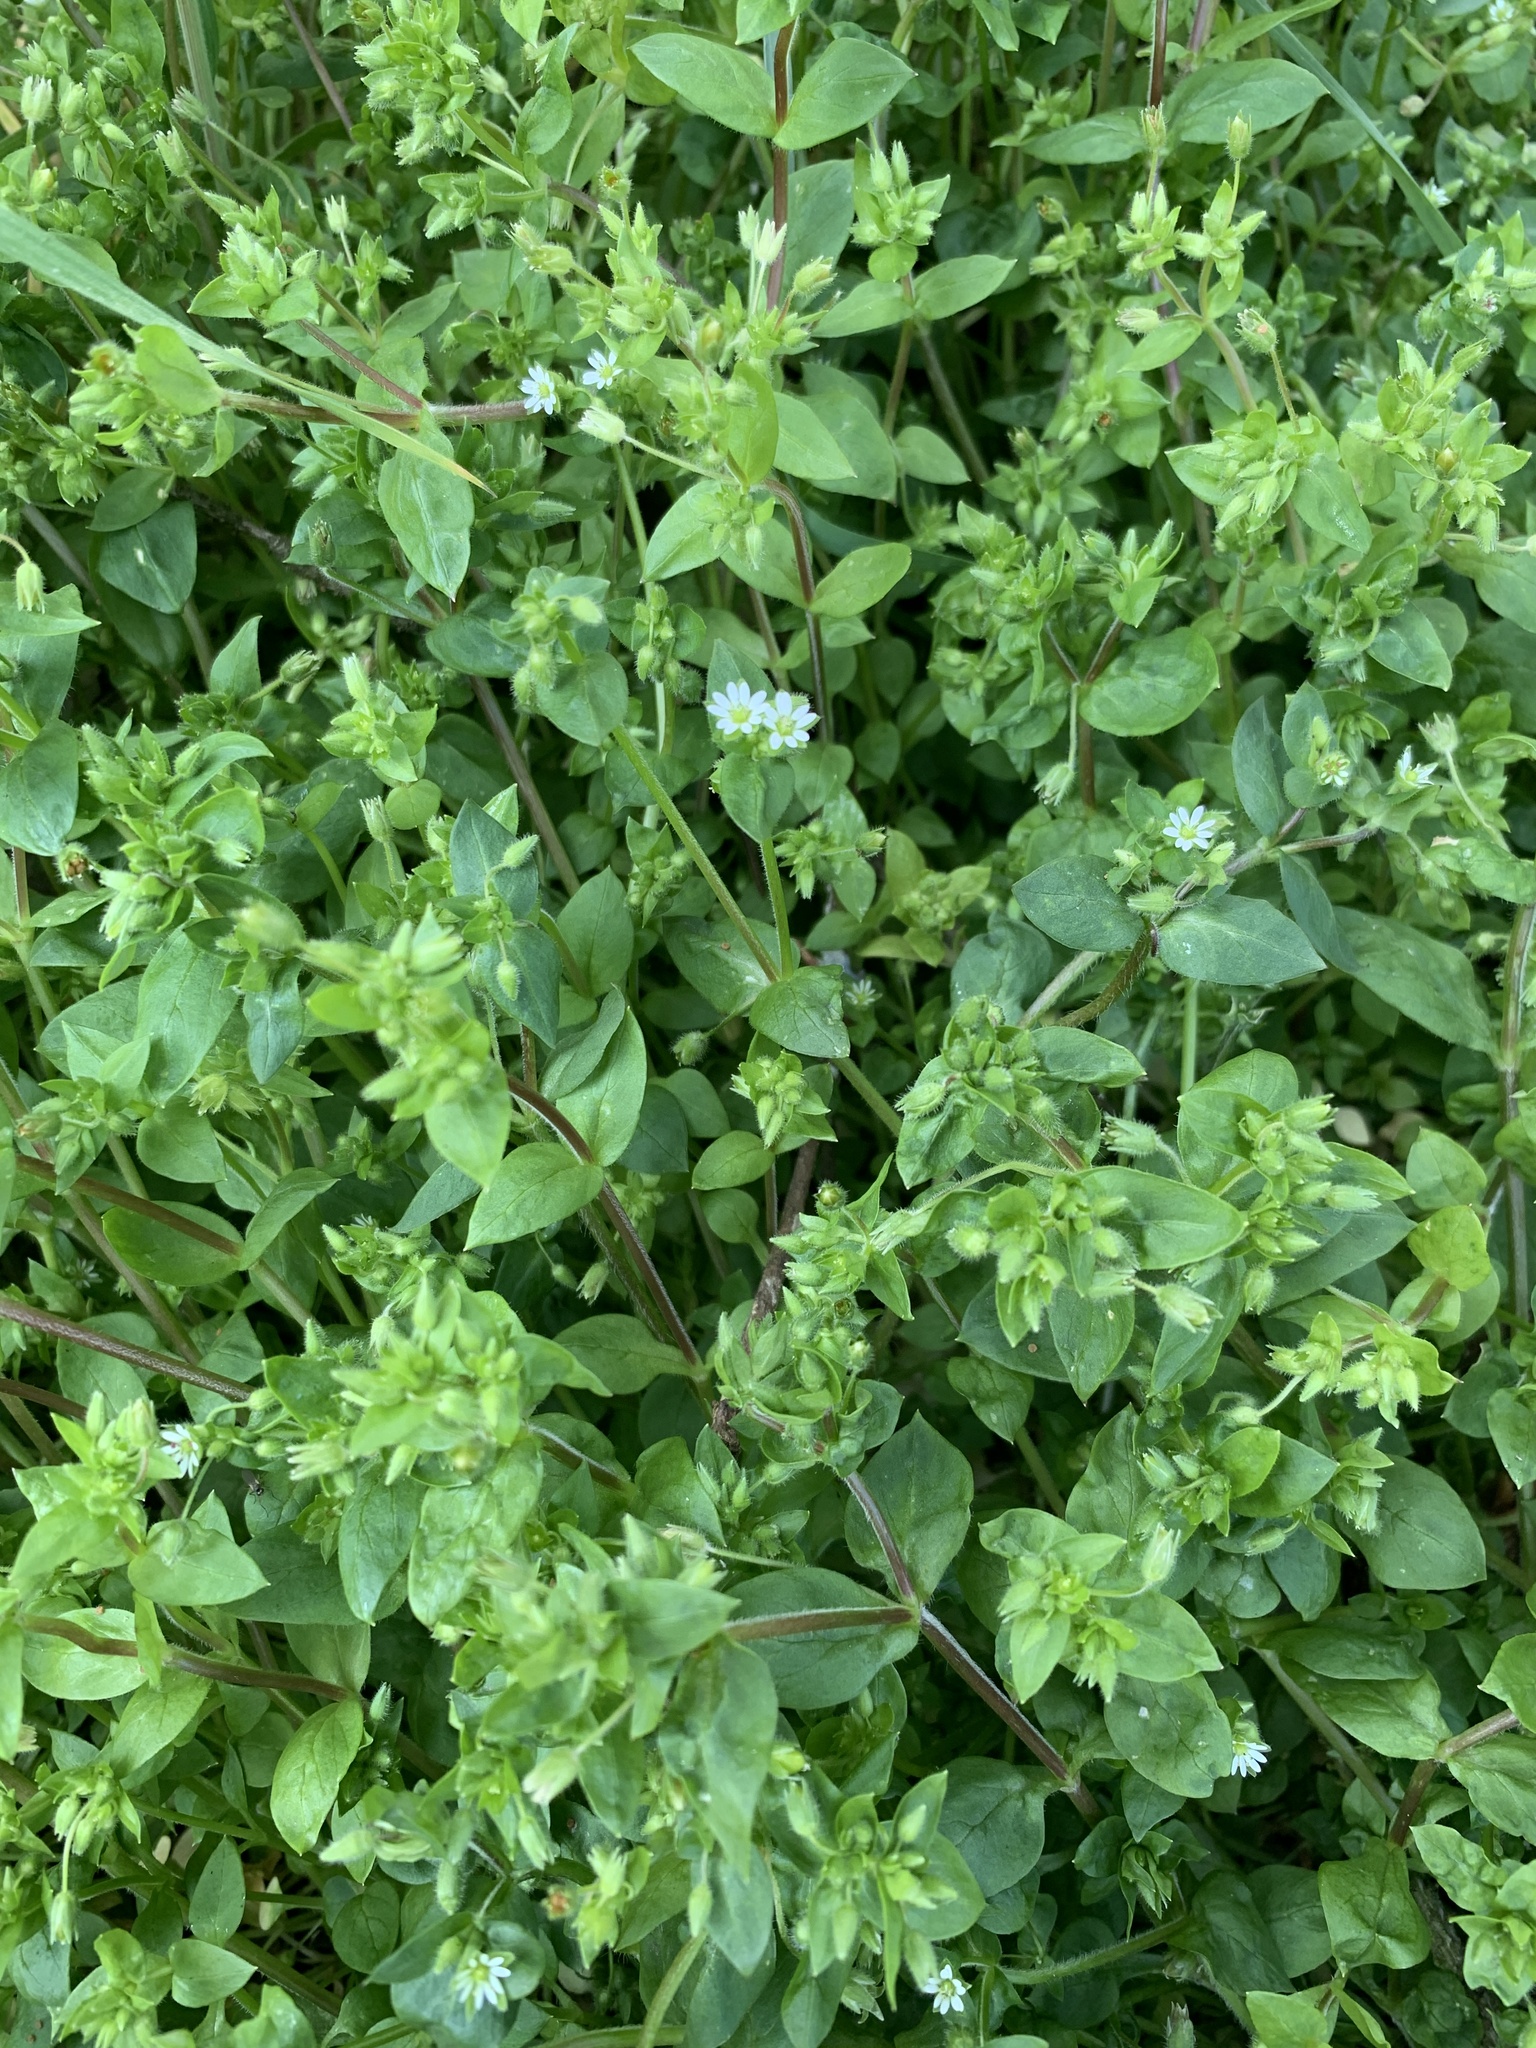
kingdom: Plantae
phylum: Tracheophyta
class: Magnoliopsida
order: Caryophyllales
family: Caryophyllaceae
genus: Stellaria
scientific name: Stellaria media
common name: Common chickweed
